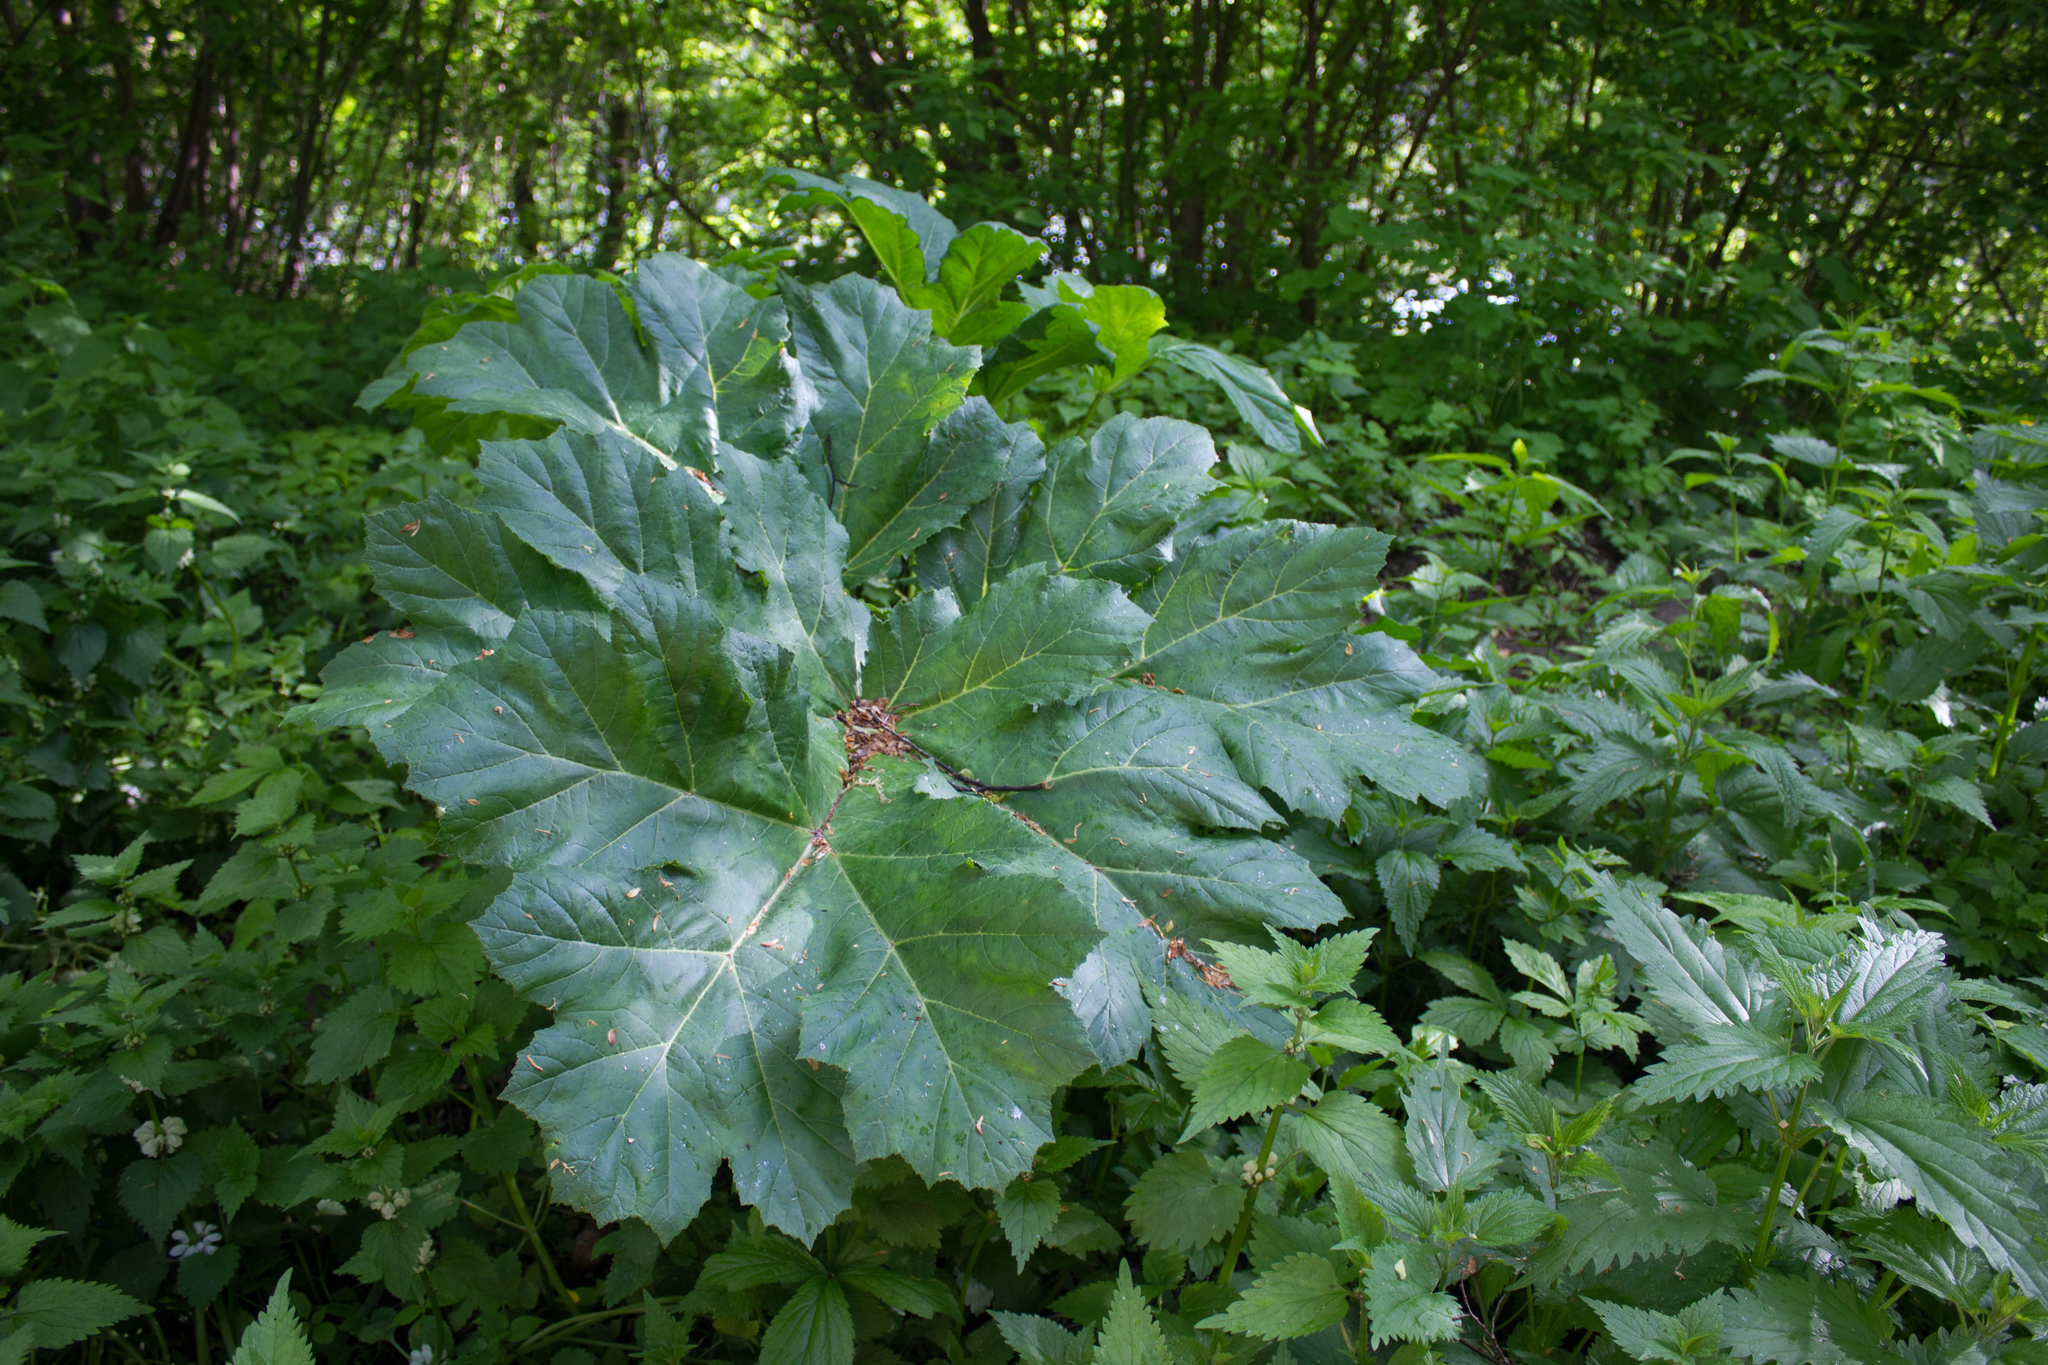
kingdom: Plantae
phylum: Tracheophyta
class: Magnoliopsida
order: Apiales
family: Apiaceae
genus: Heracleum
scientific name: Heracleum sosnowskyi
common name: Sosnowsky's hogweed
